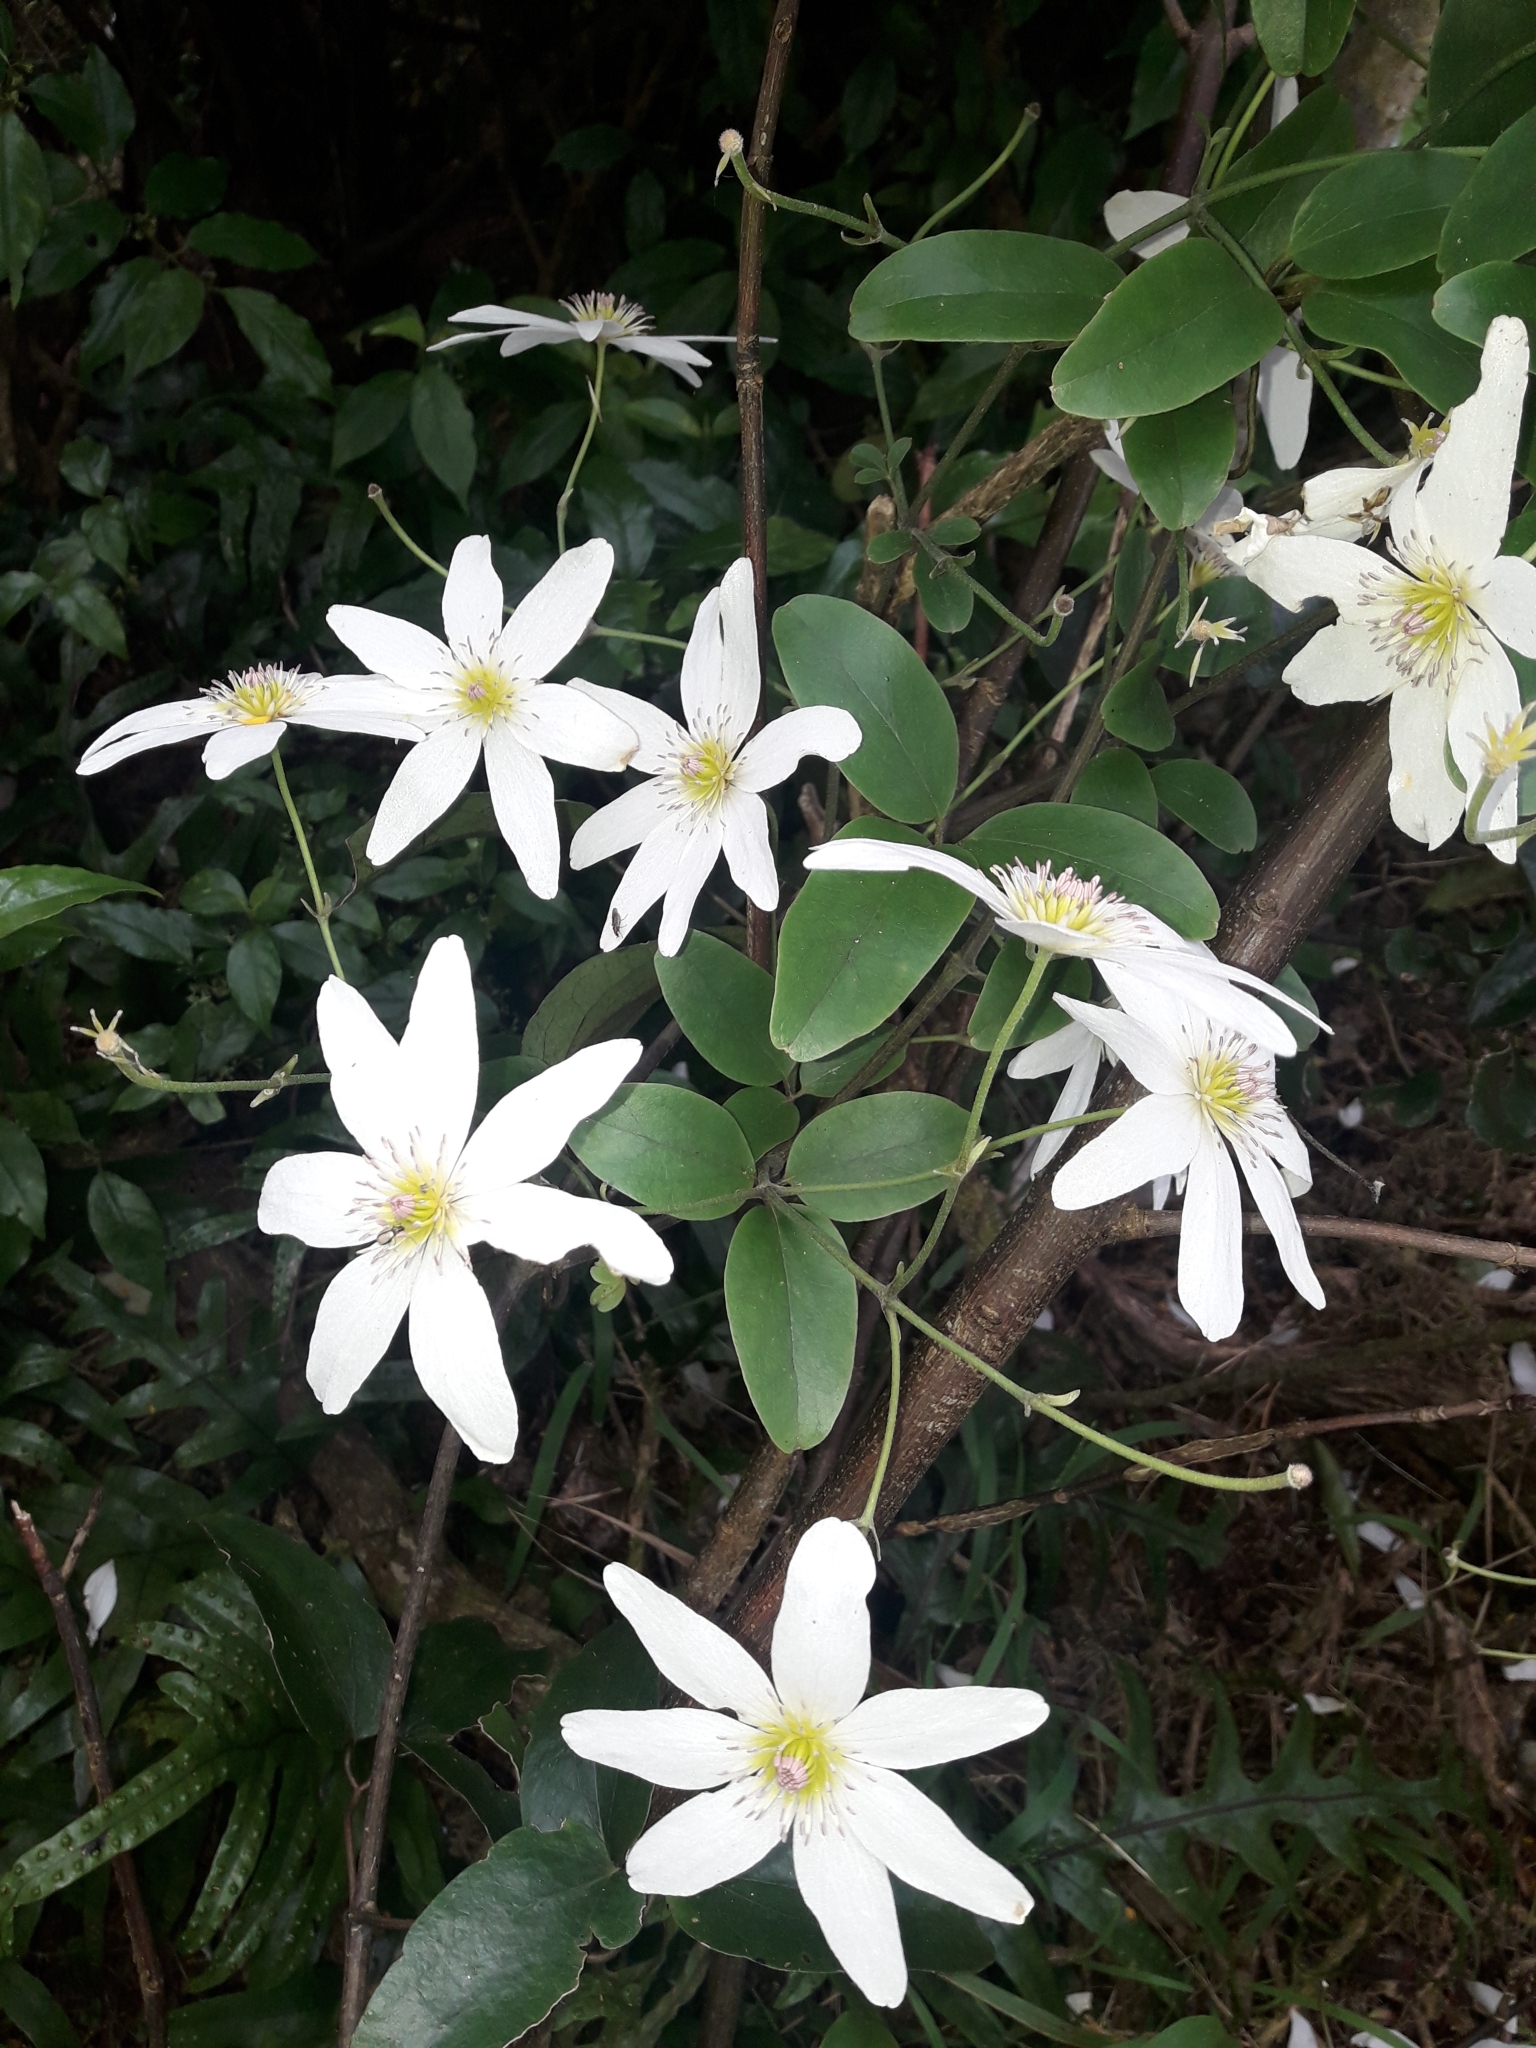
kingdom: Plantae
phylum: Tracheophyta
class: Magnoliopsida
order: Ranunculales
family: Ranunculaceae
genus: Clematis
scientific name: Clematis paniculata
